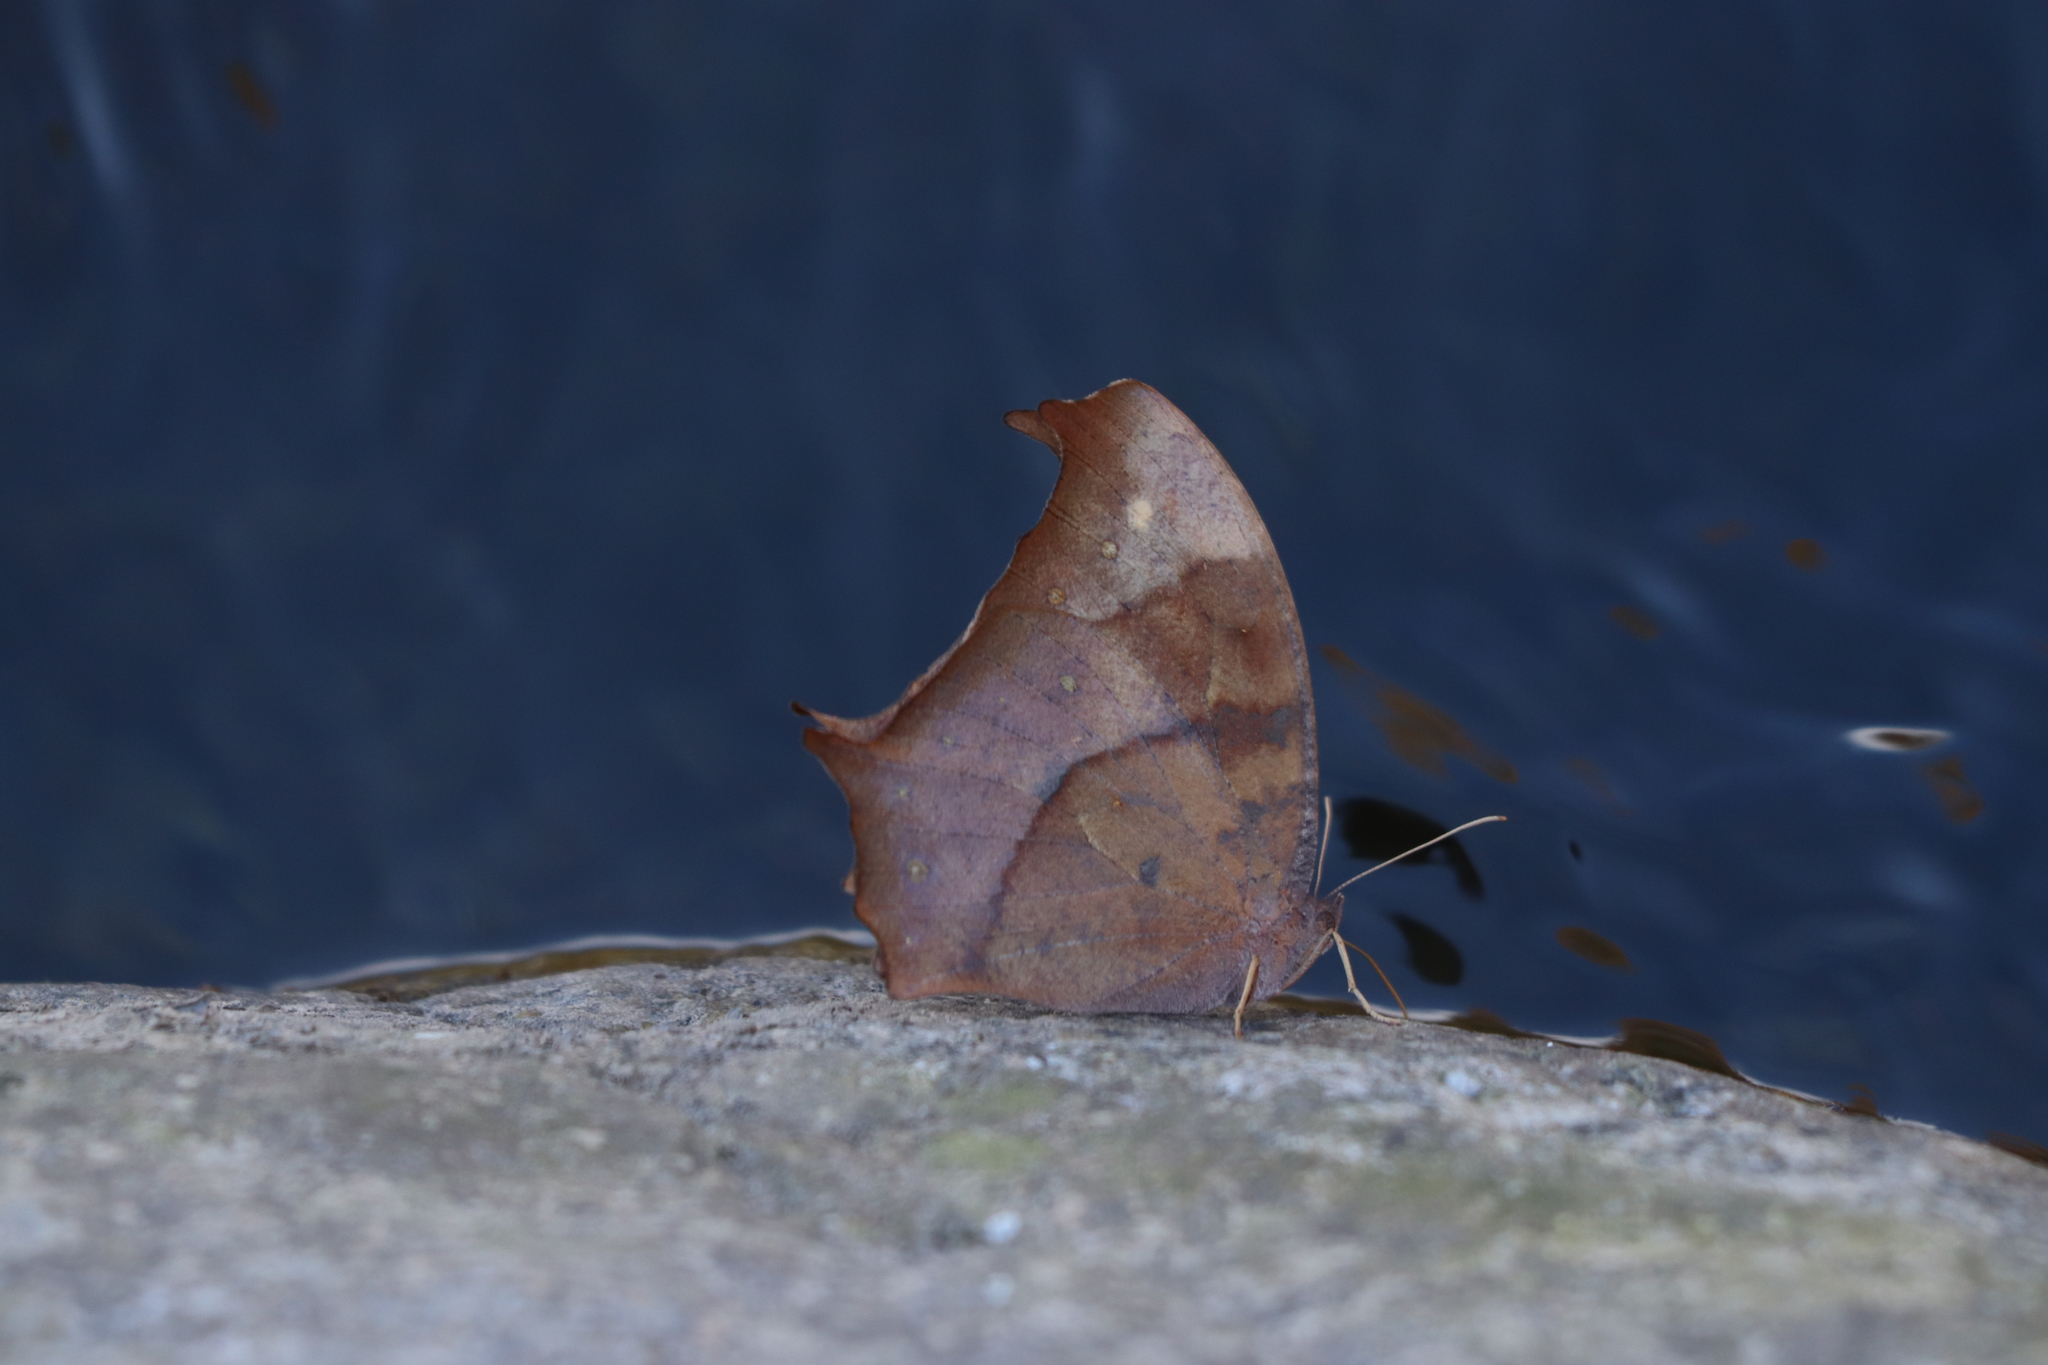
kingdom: Animalia
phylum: Arthropoda
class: Insecta
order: Lepidoptera
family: Nymphalidae
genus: Melanitis
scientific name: Melanitis phedima
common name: Dark evening brown
